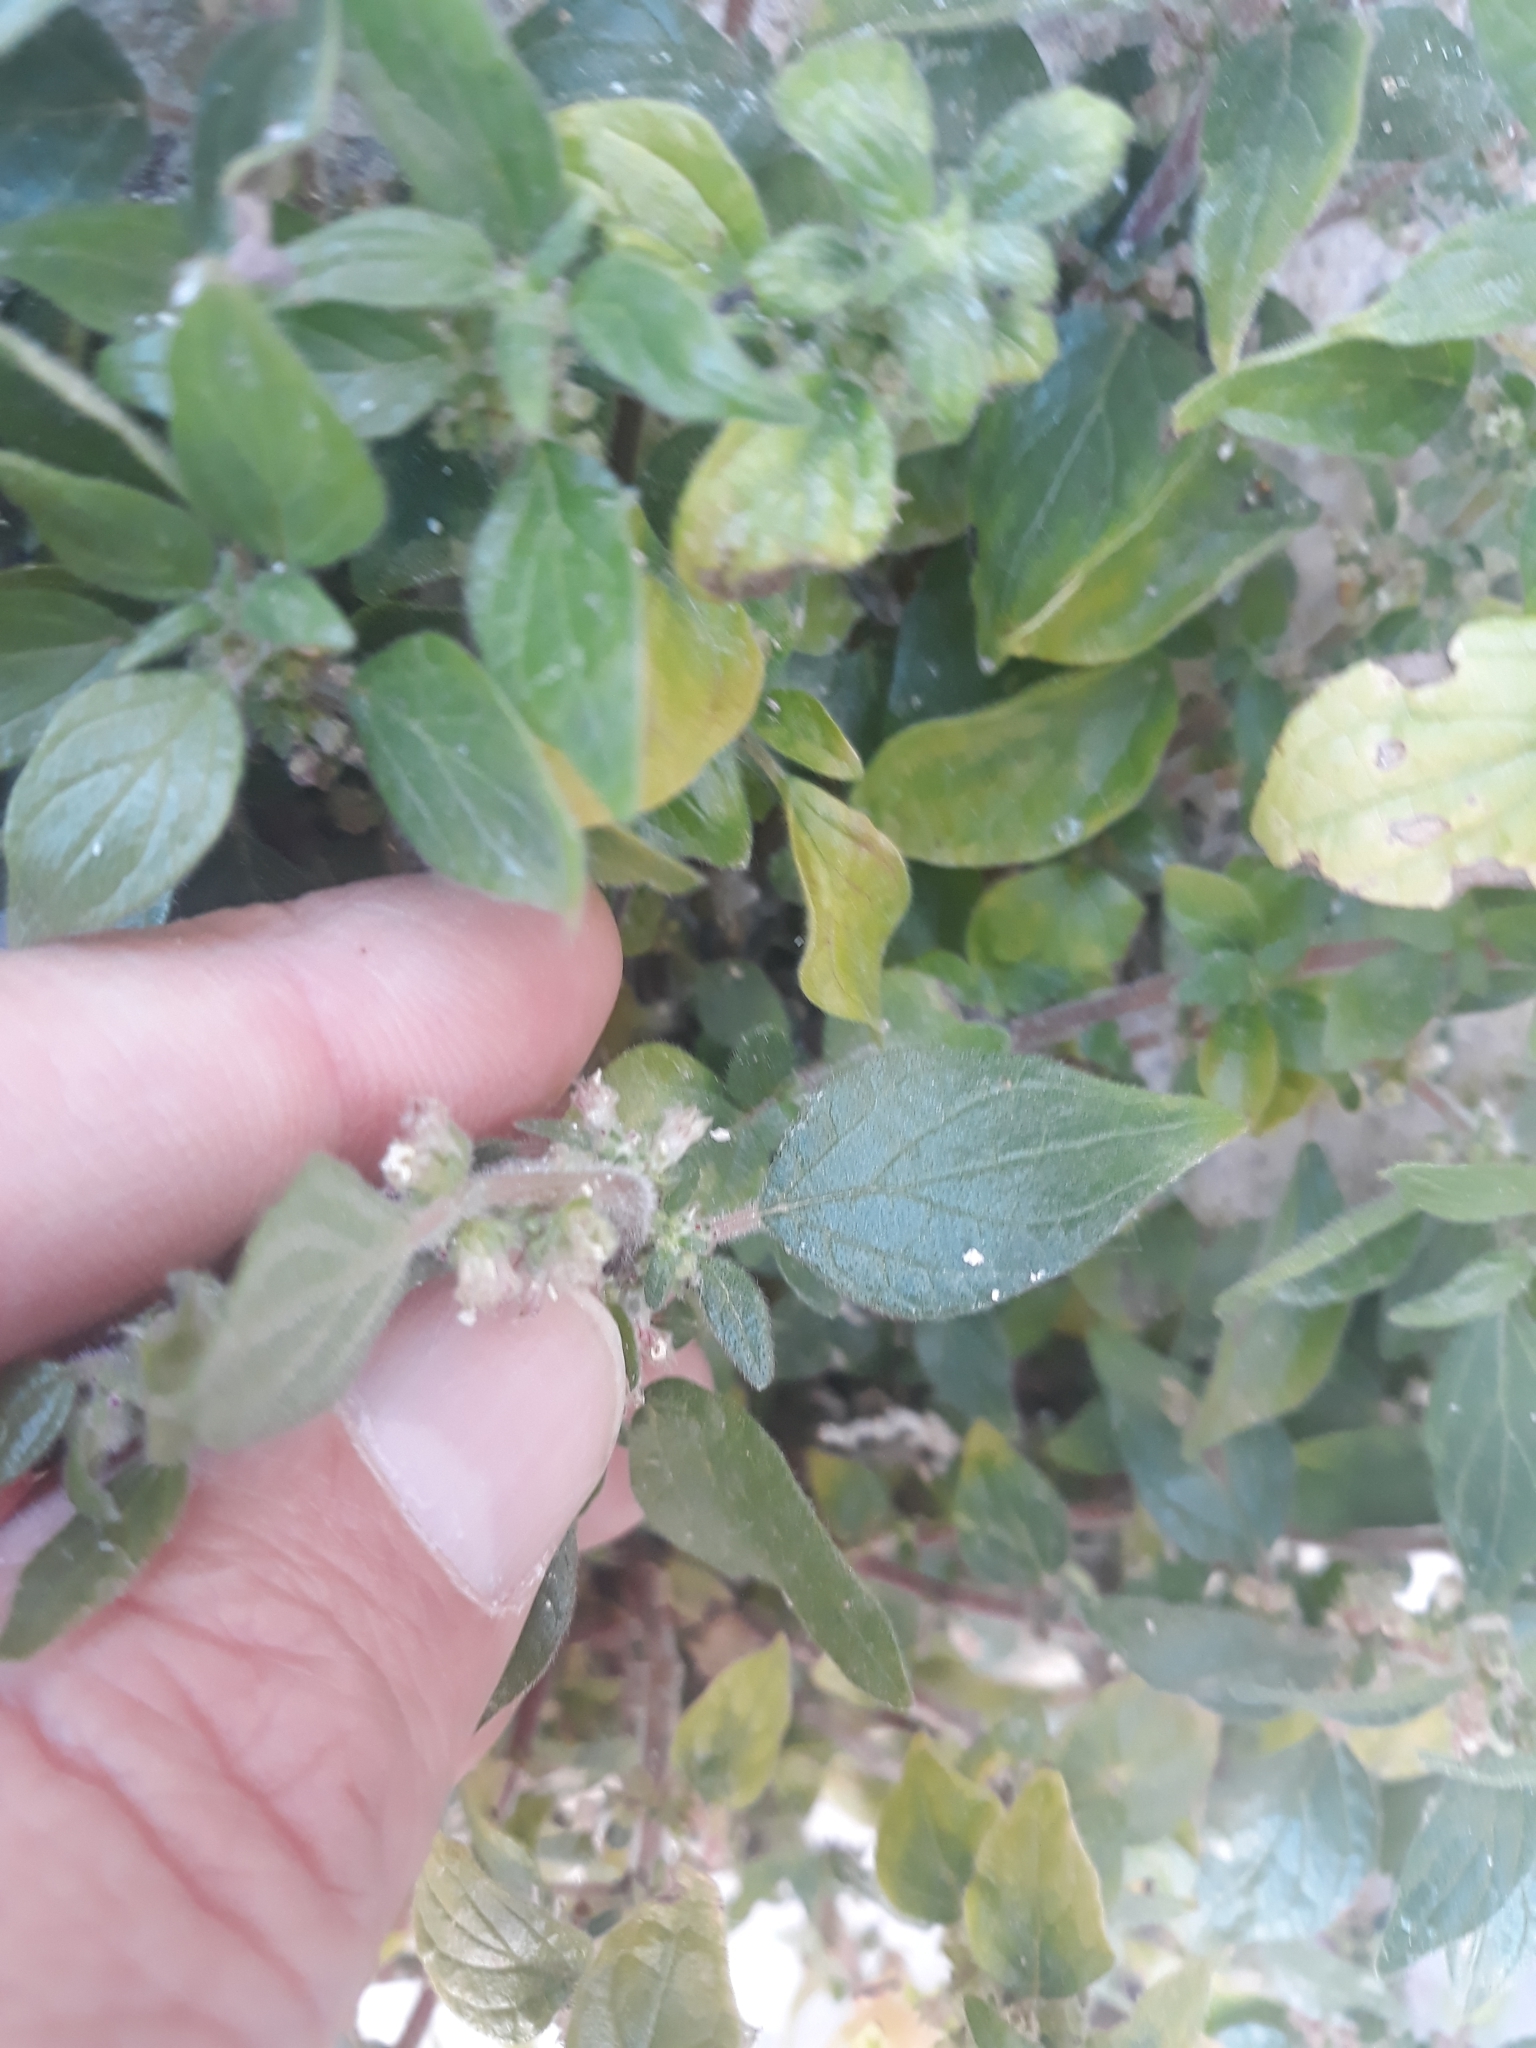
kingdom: Plantae
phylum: Tracheophyta
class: Magnoliopsida
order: Rosales
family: Urticaceae
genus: Parietaria
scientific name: Parietaria judaica
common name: Pellitory-of-the-wall
